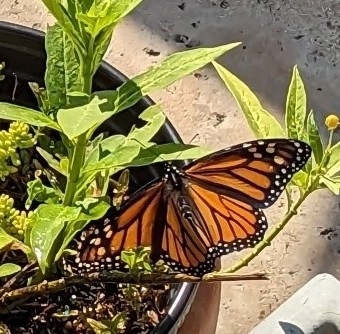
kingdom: Animalia
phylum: Arthropoda
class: Insecta
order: Lepidoptera
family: Nymphalidae
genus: Danaus
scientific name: Danaus plexippus
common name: Monarch
